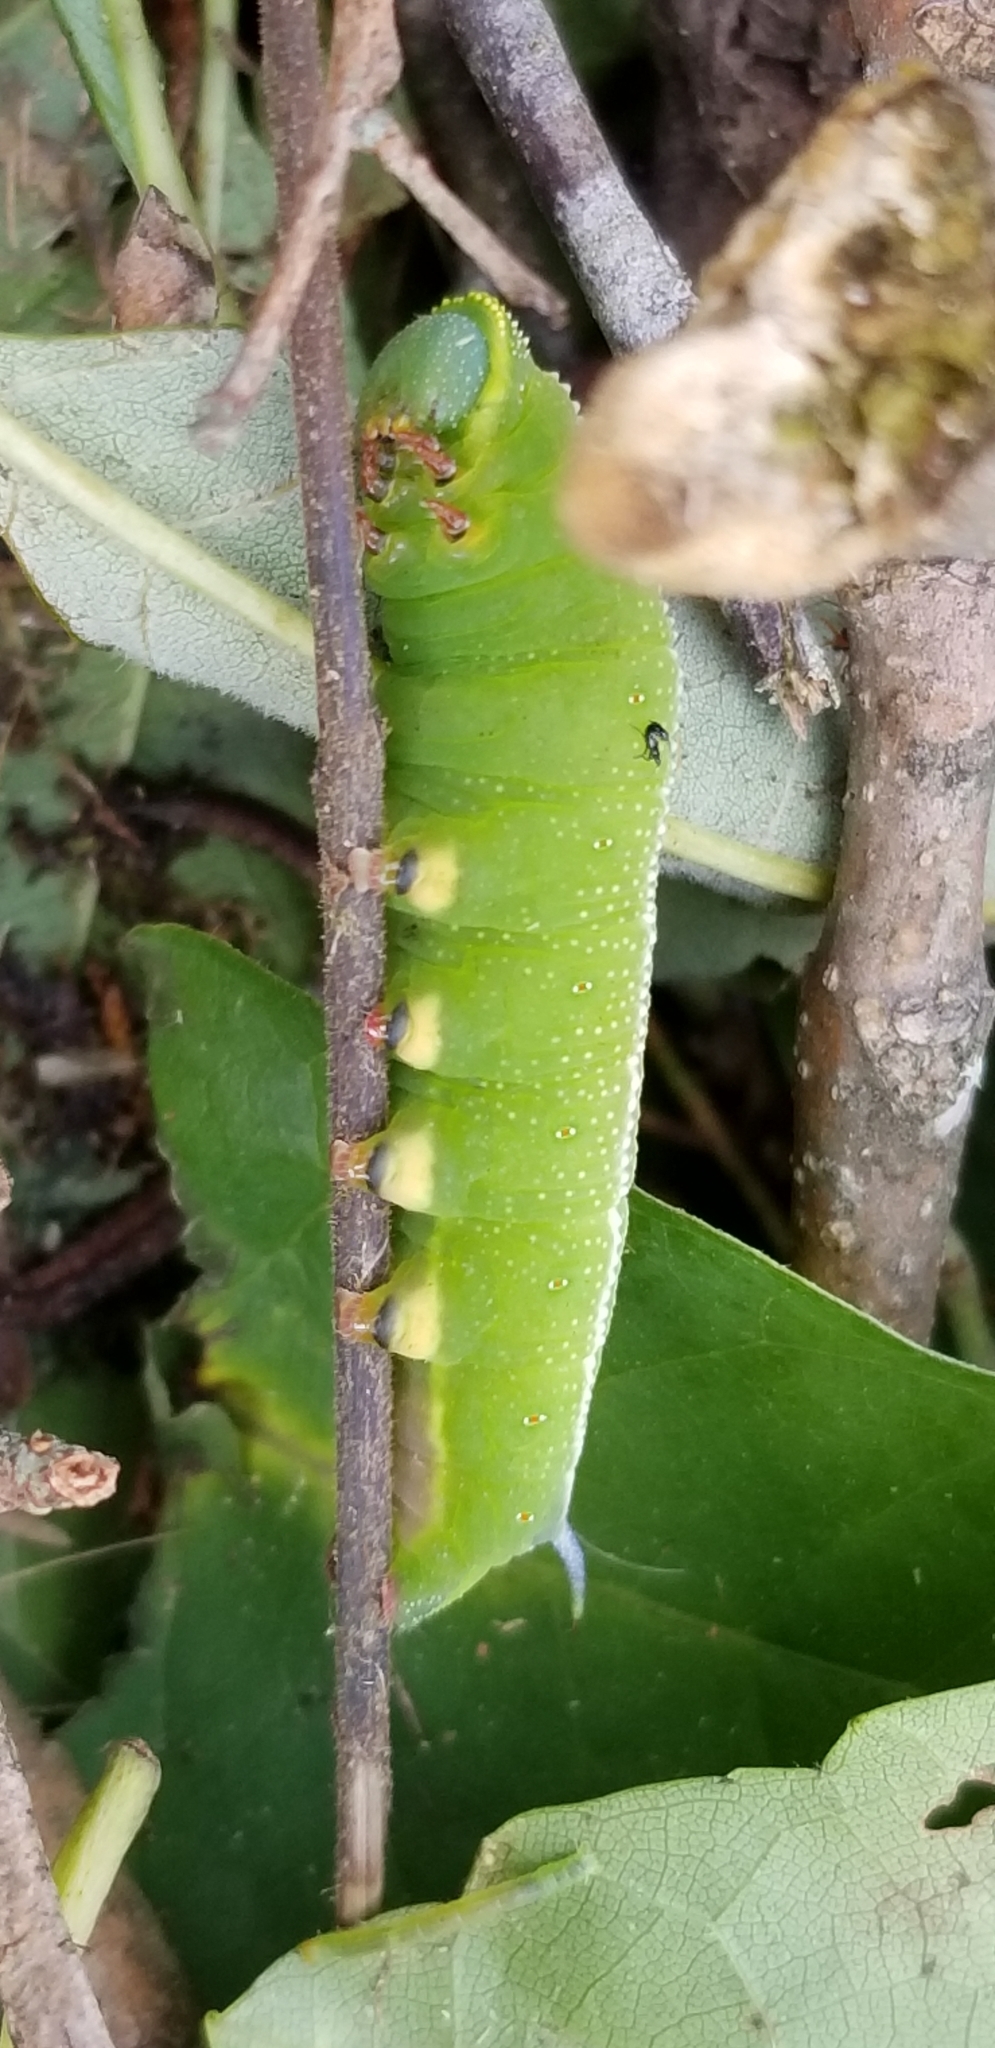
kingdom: Animalia
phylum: Arthropoda
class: Insecta
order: Lepidoptera
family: Sphingidae
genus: Hemaris
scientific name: Hemaris thysbe
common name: Common clear-wing
